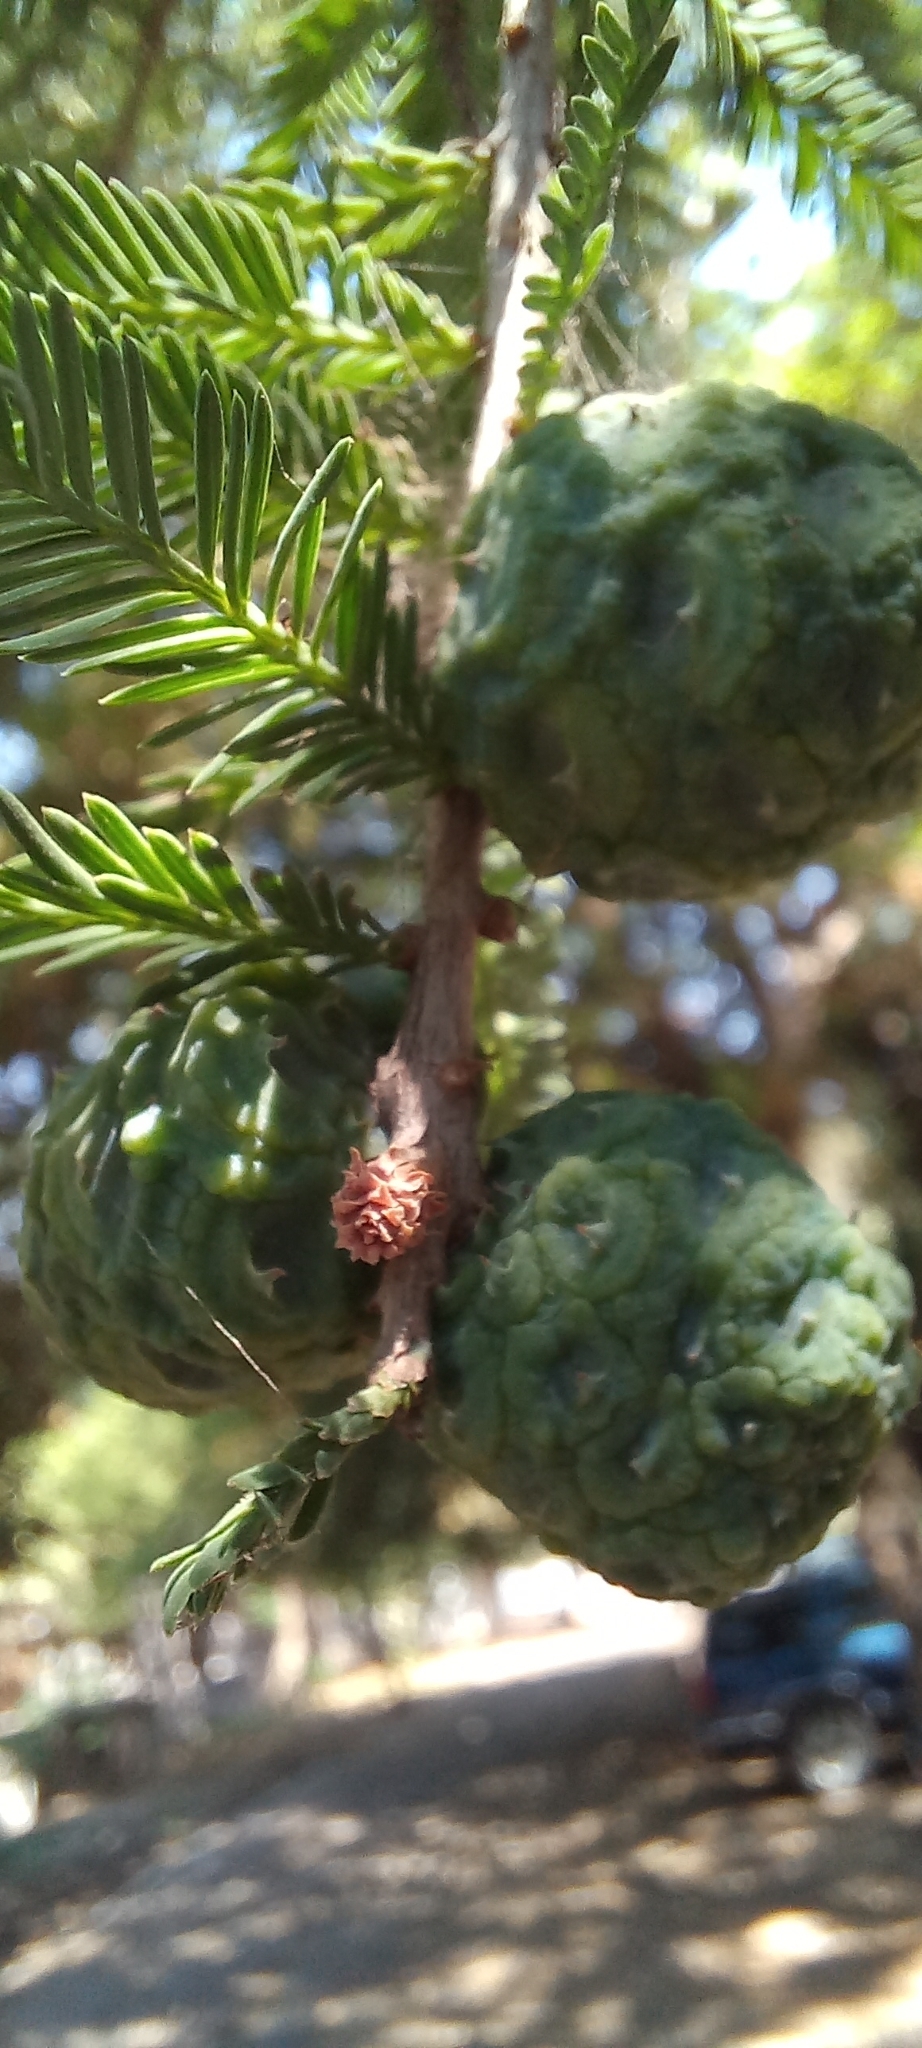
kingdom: Plantae
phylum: Tracheophyta
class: Pinopsida
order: Pinales
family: Cupressaceae
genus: Taxodium
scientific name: Taxodium mucronatum
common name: Montezume bald cypress
